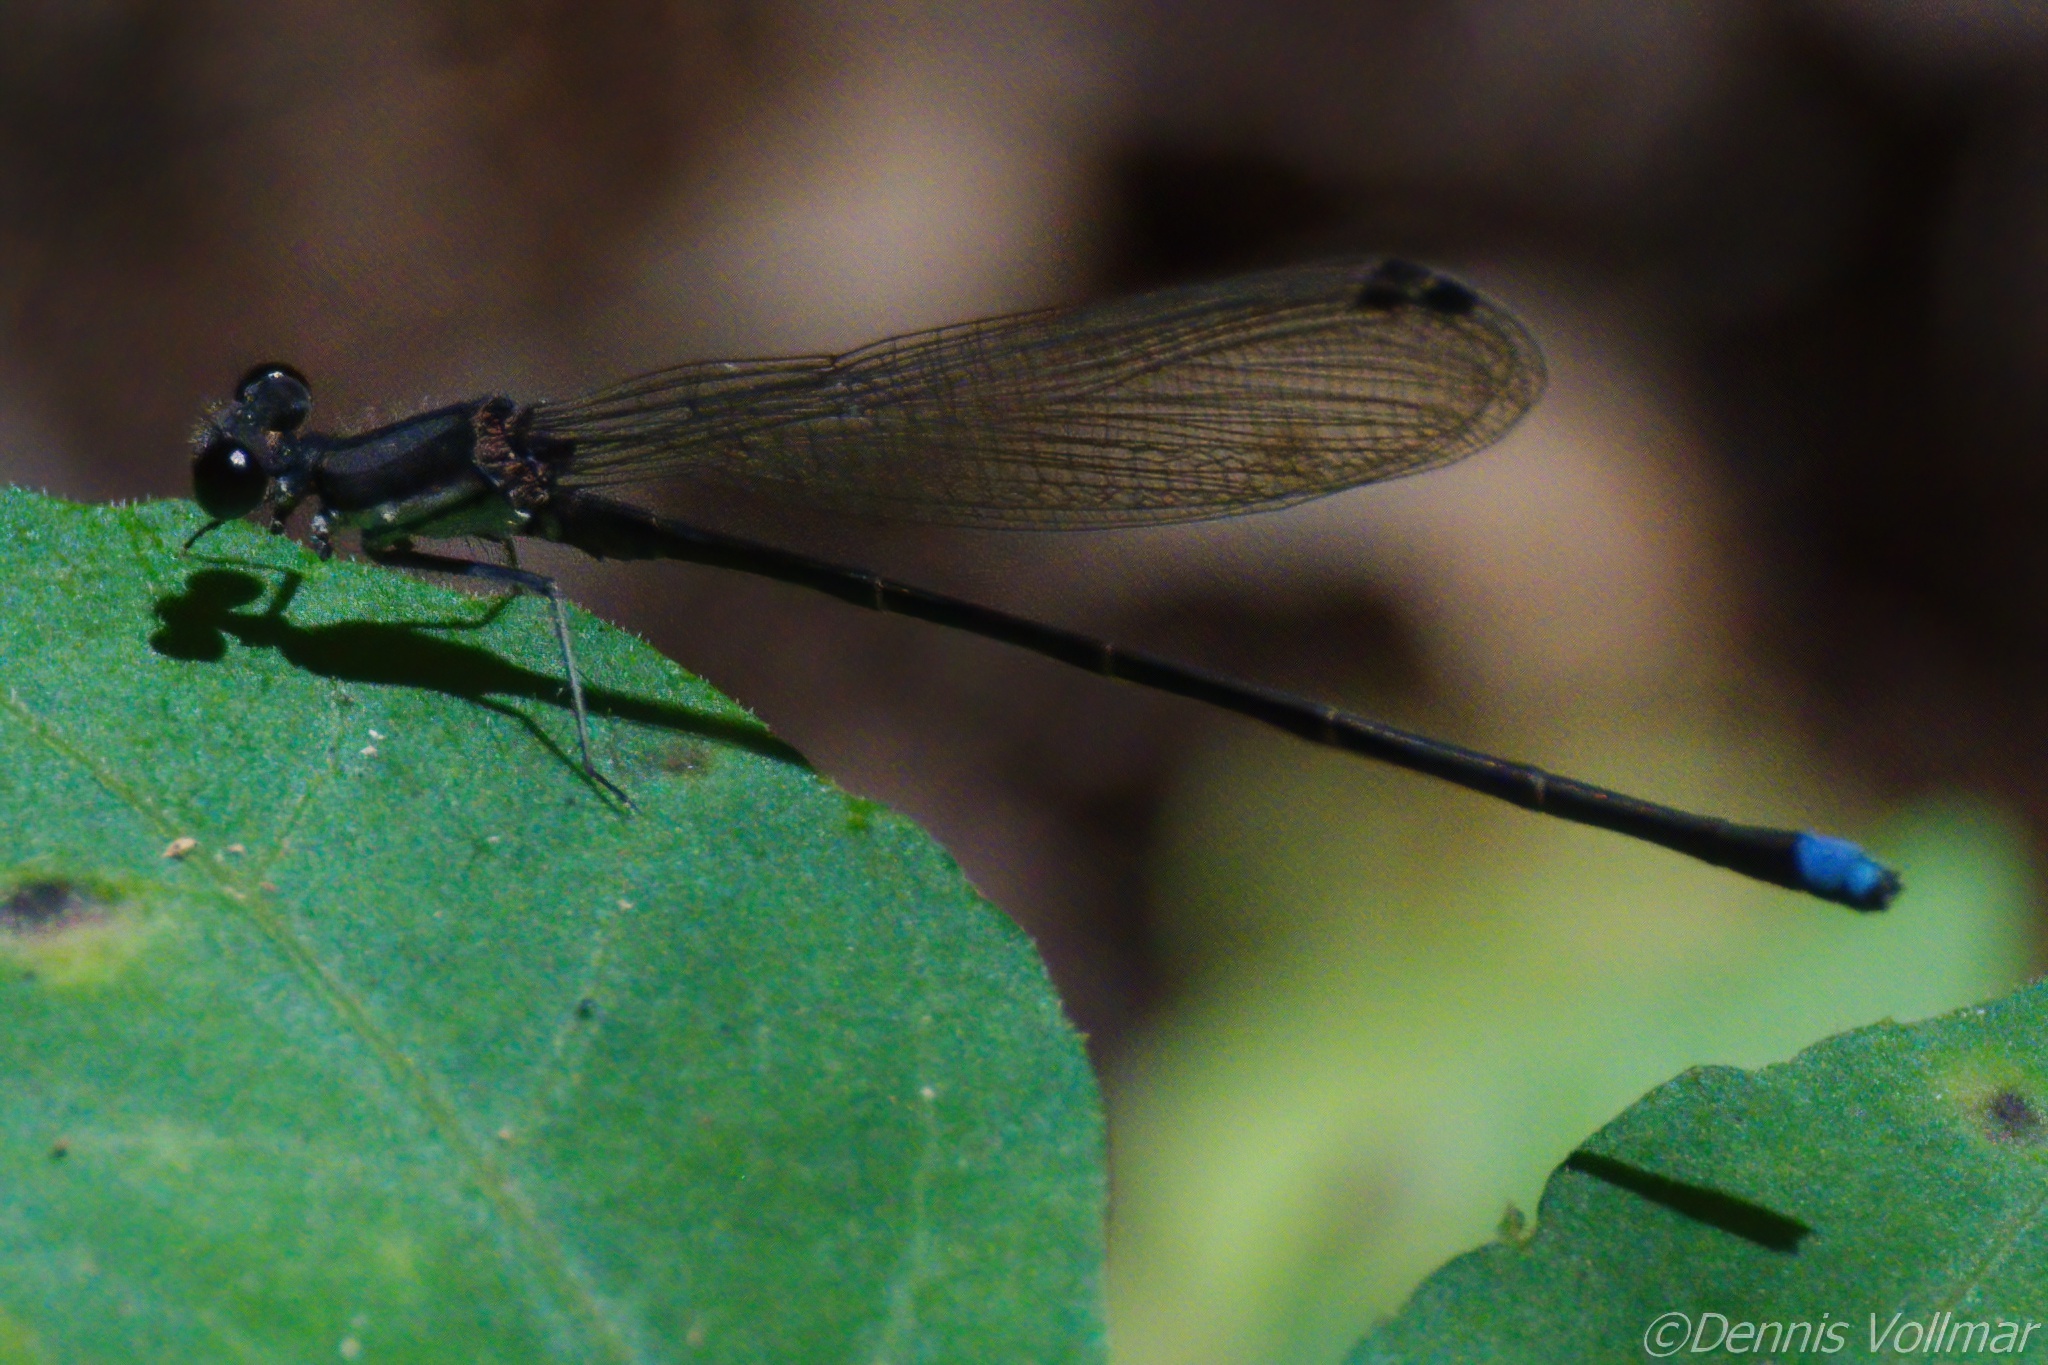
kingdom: Animalia
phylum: Arthropoda
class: Insecta
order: Odonata
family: Coenagrionidae
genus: Argia
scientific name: Argia tibialis
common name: Blue-tipped dancer
